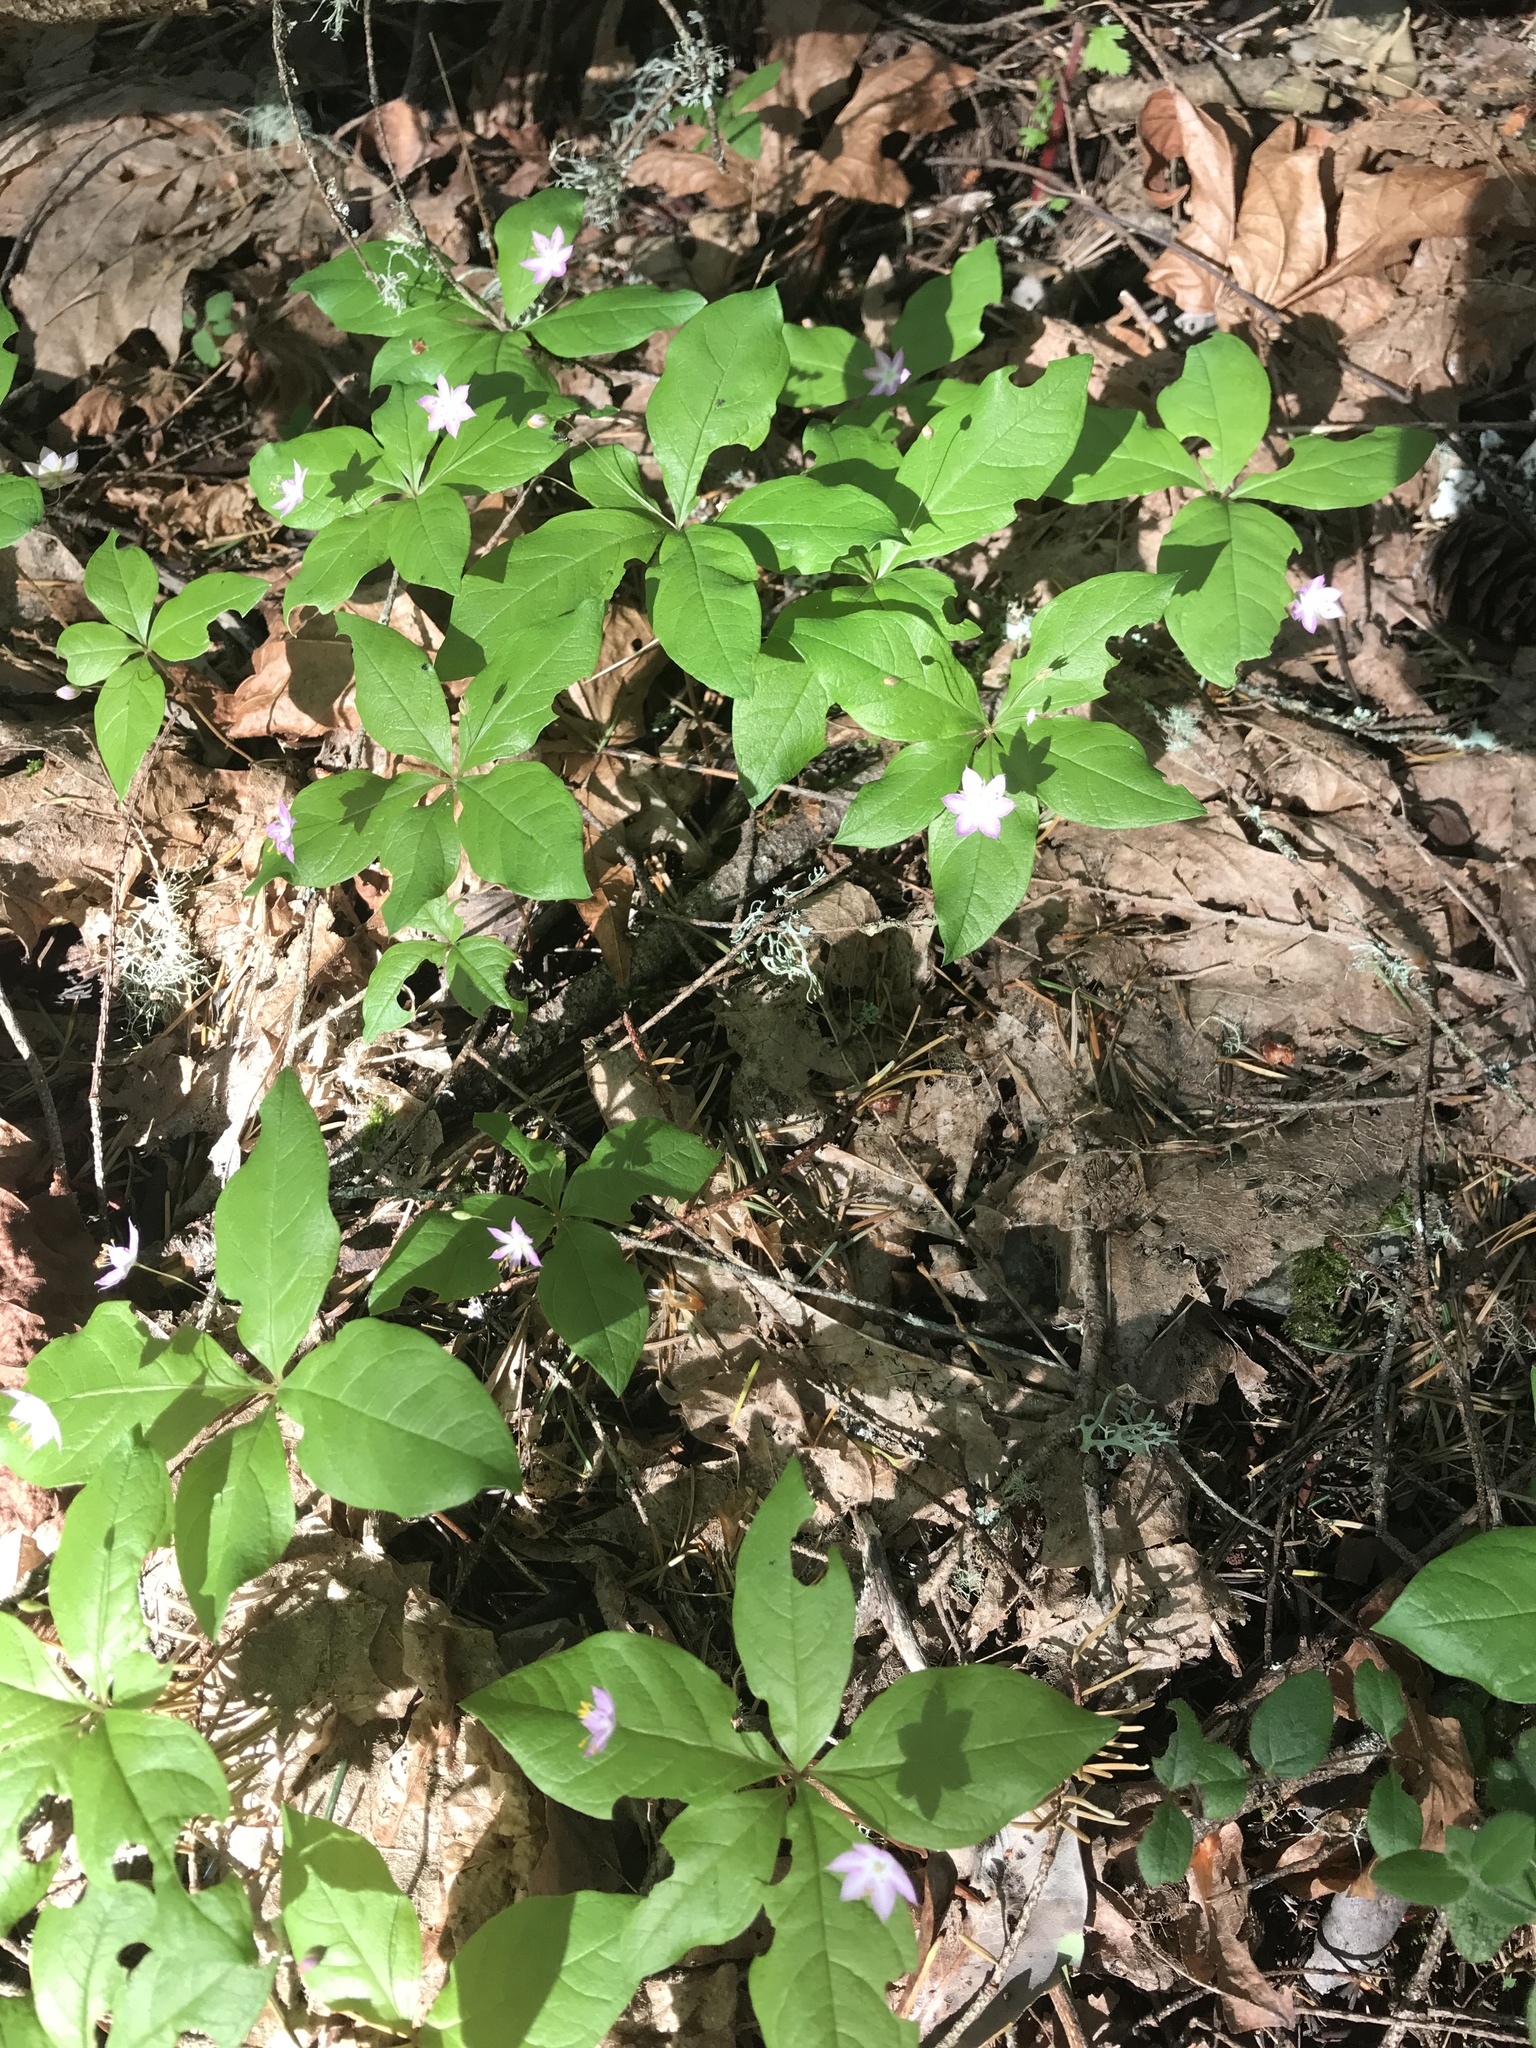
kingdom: Plantae
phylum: Tracheophyta
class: Magnoliopsida
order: Ericales
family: Primulaceae
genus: Lysimachia
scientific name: Lysimachia latifolia
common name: Pacific starflower
